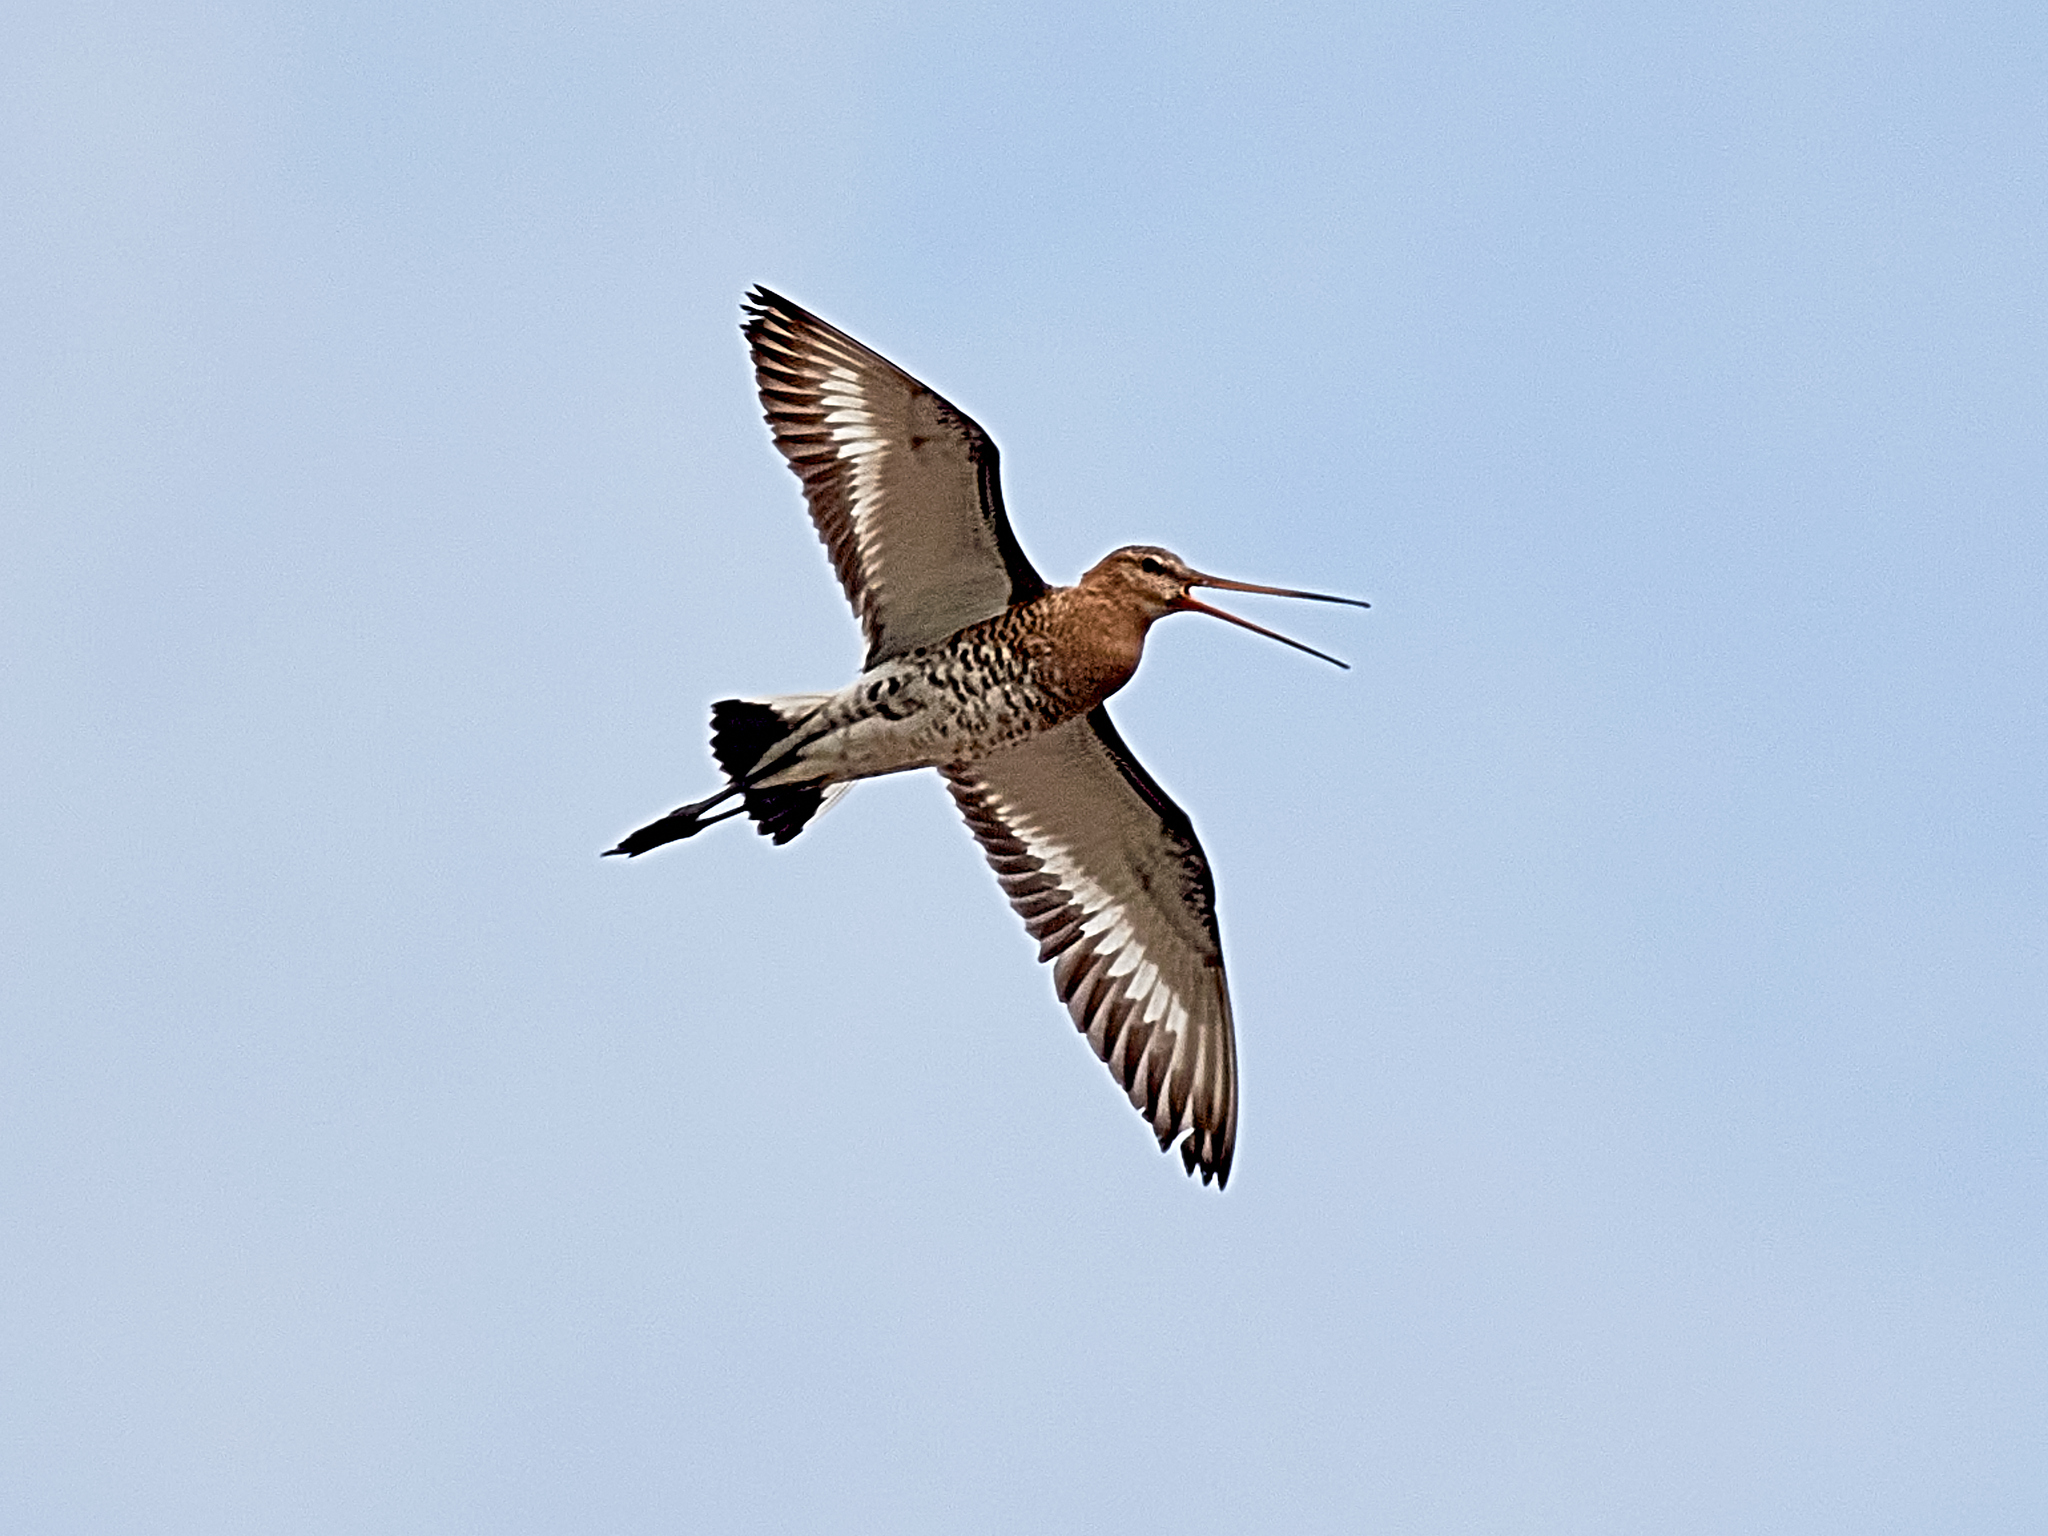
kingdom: Animalia
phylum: Chordata
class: Aves
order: Charadriiformes
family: Scolopacidae
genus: Limosa
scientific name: Limosa limosa
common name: Black-tailed godwit
